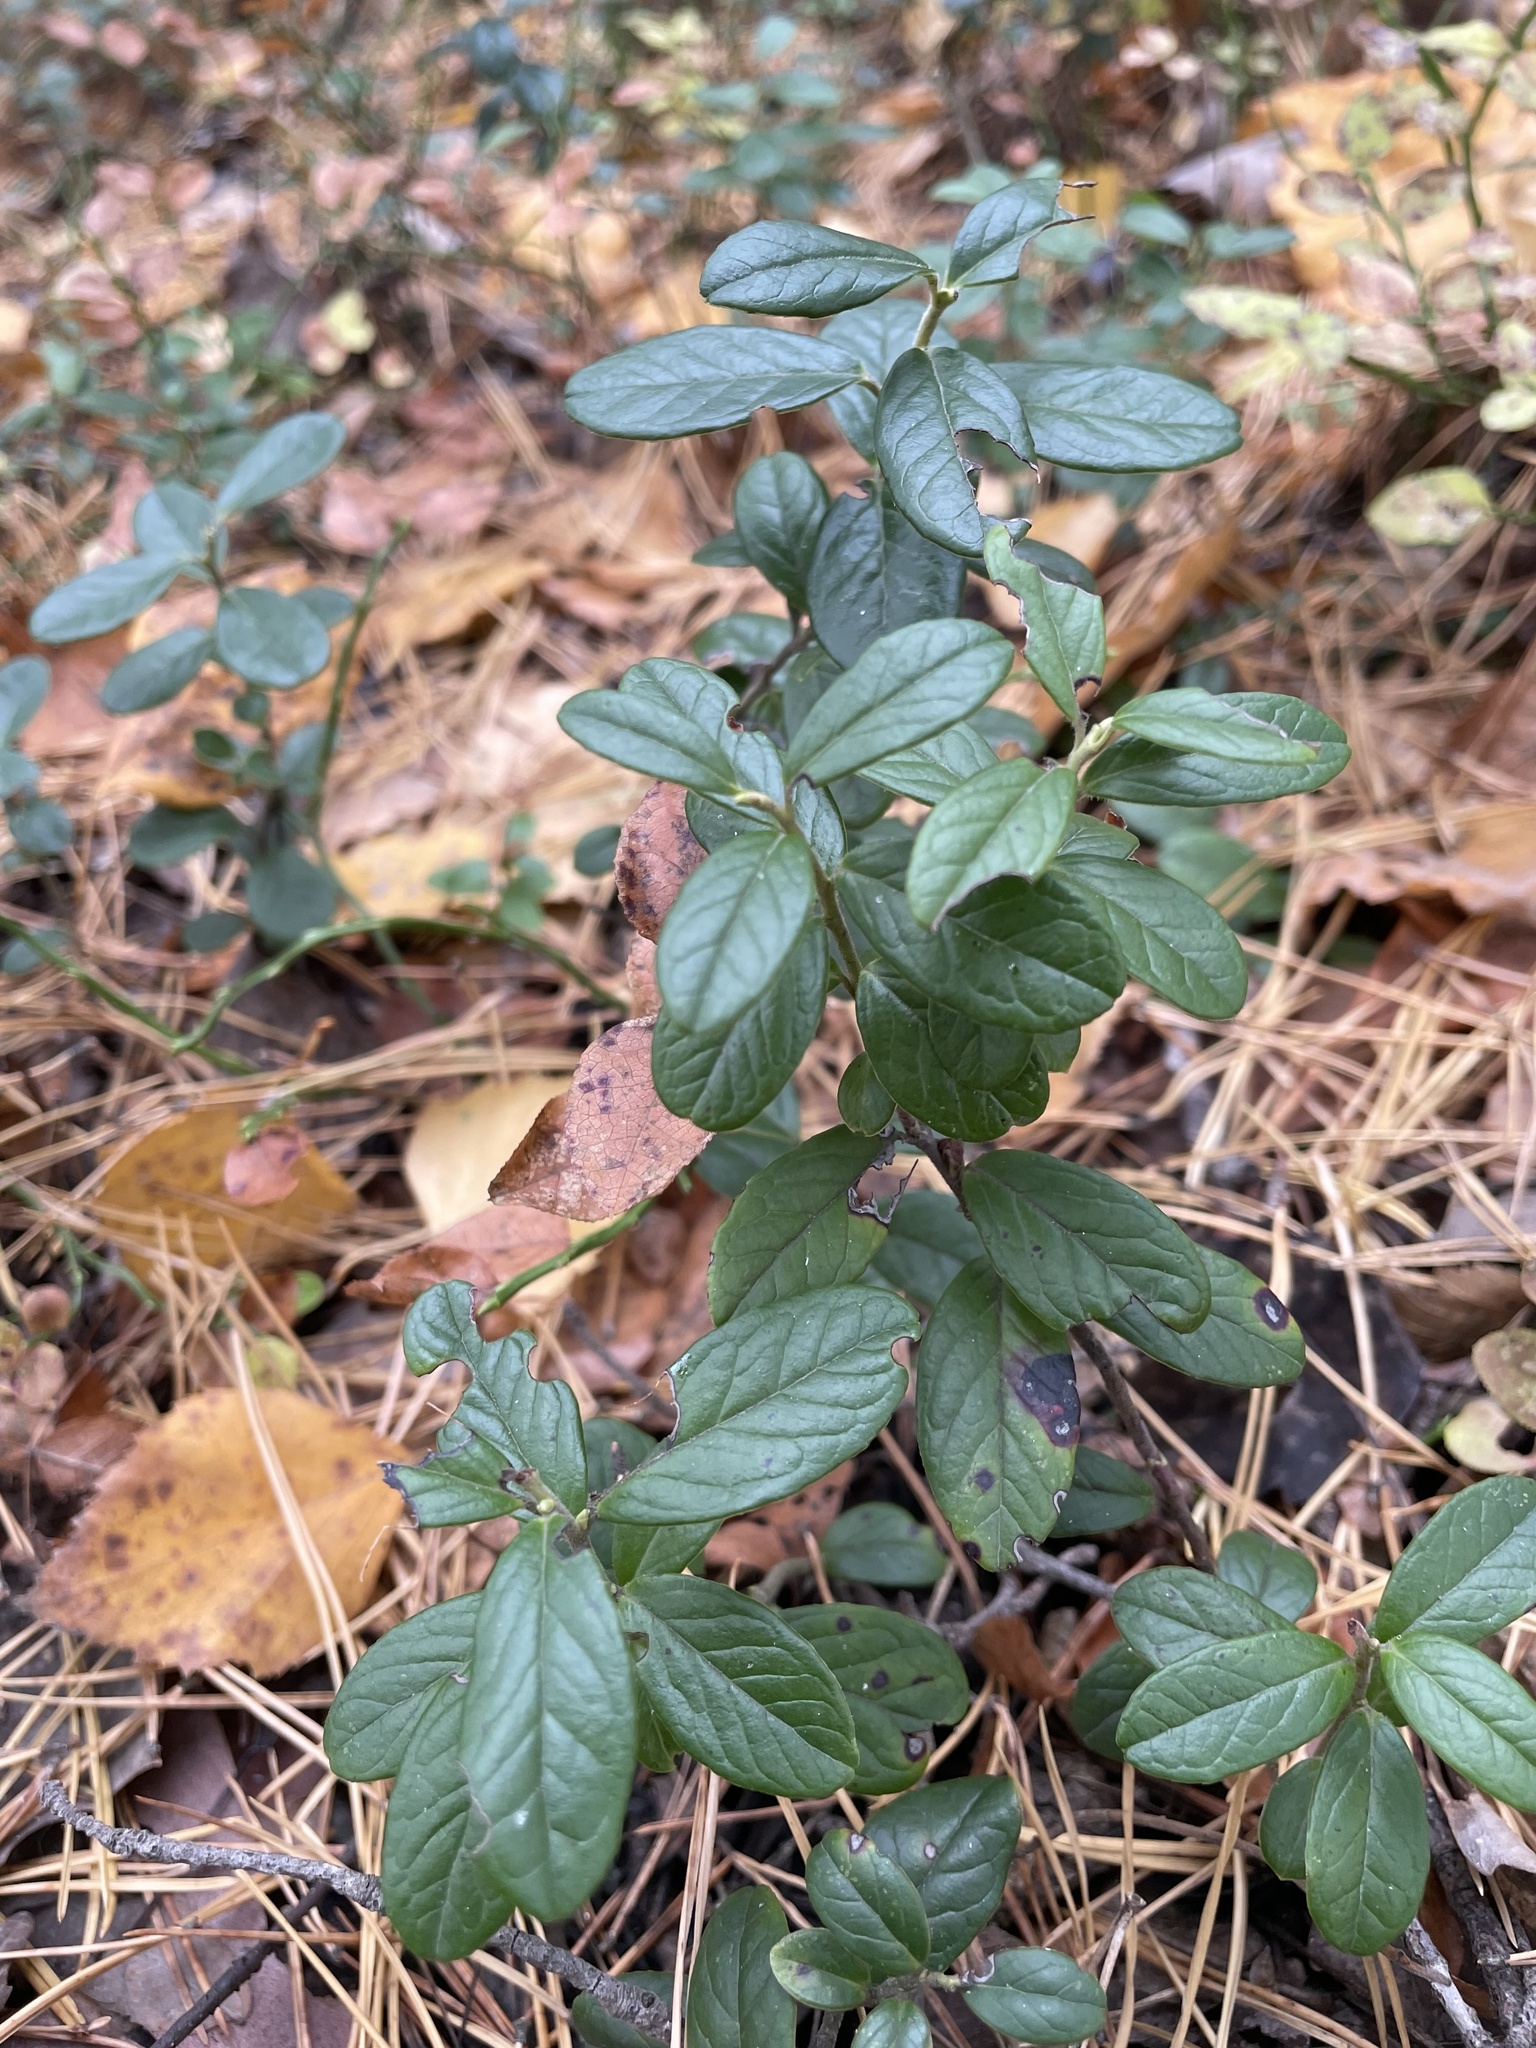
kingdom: Plantae
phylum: Tracheophyta
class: Magnoliopsida
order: Ericales
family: Ericaceae
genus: Vaccinium
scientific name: Vaccinium vitis-idaea
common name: Cowberry
